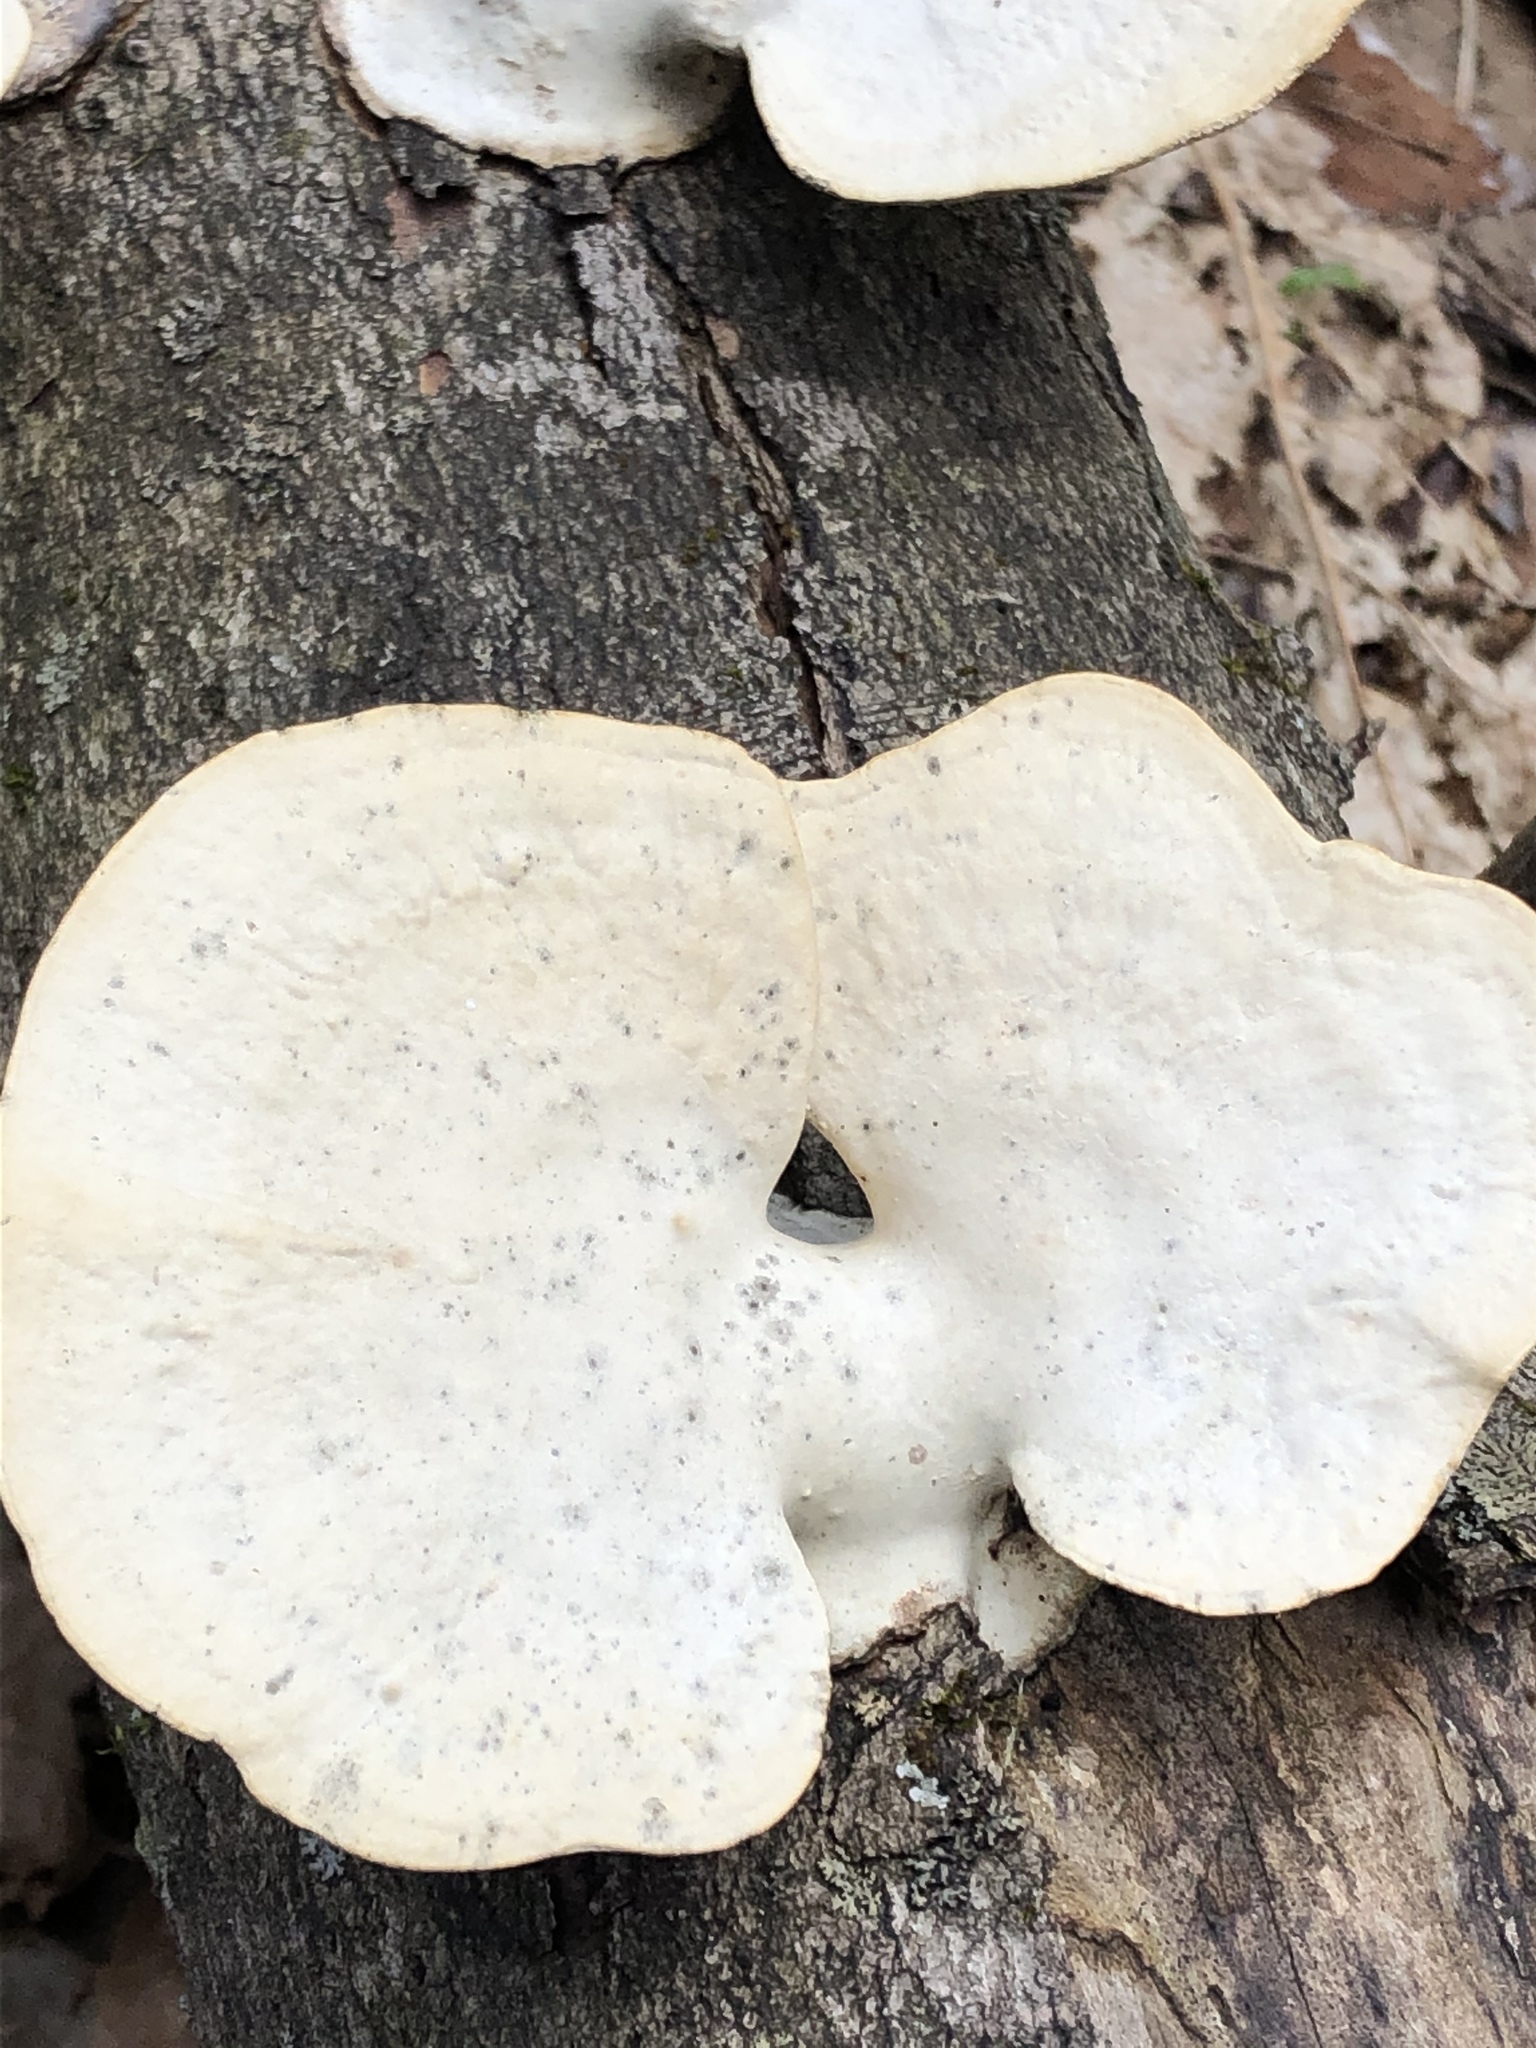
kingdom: Fungi
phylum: Basidiomycota
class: Agaricomycetes
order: Polyporales
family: Polyporaceae
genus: Trametes
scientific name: Trametes
